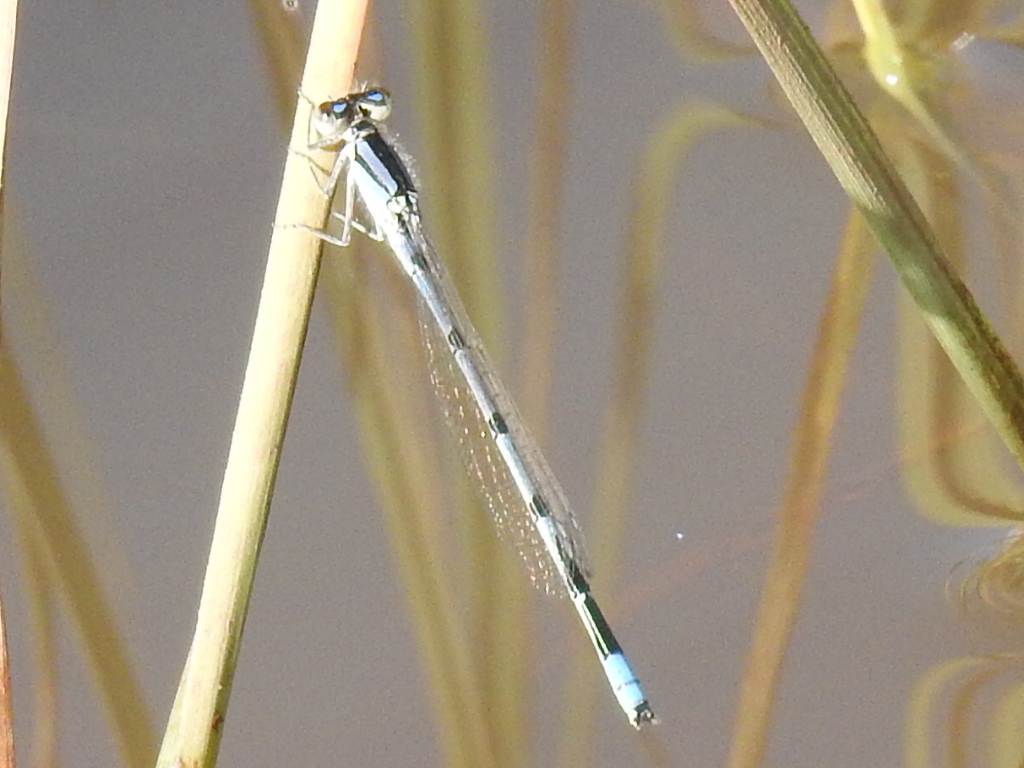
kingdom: Animalia
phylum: Arthropoda
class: Insecta
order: Odonata
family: Coenagrionidae
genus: Enallagma
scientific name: Enallagma civile
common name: Damselfly
